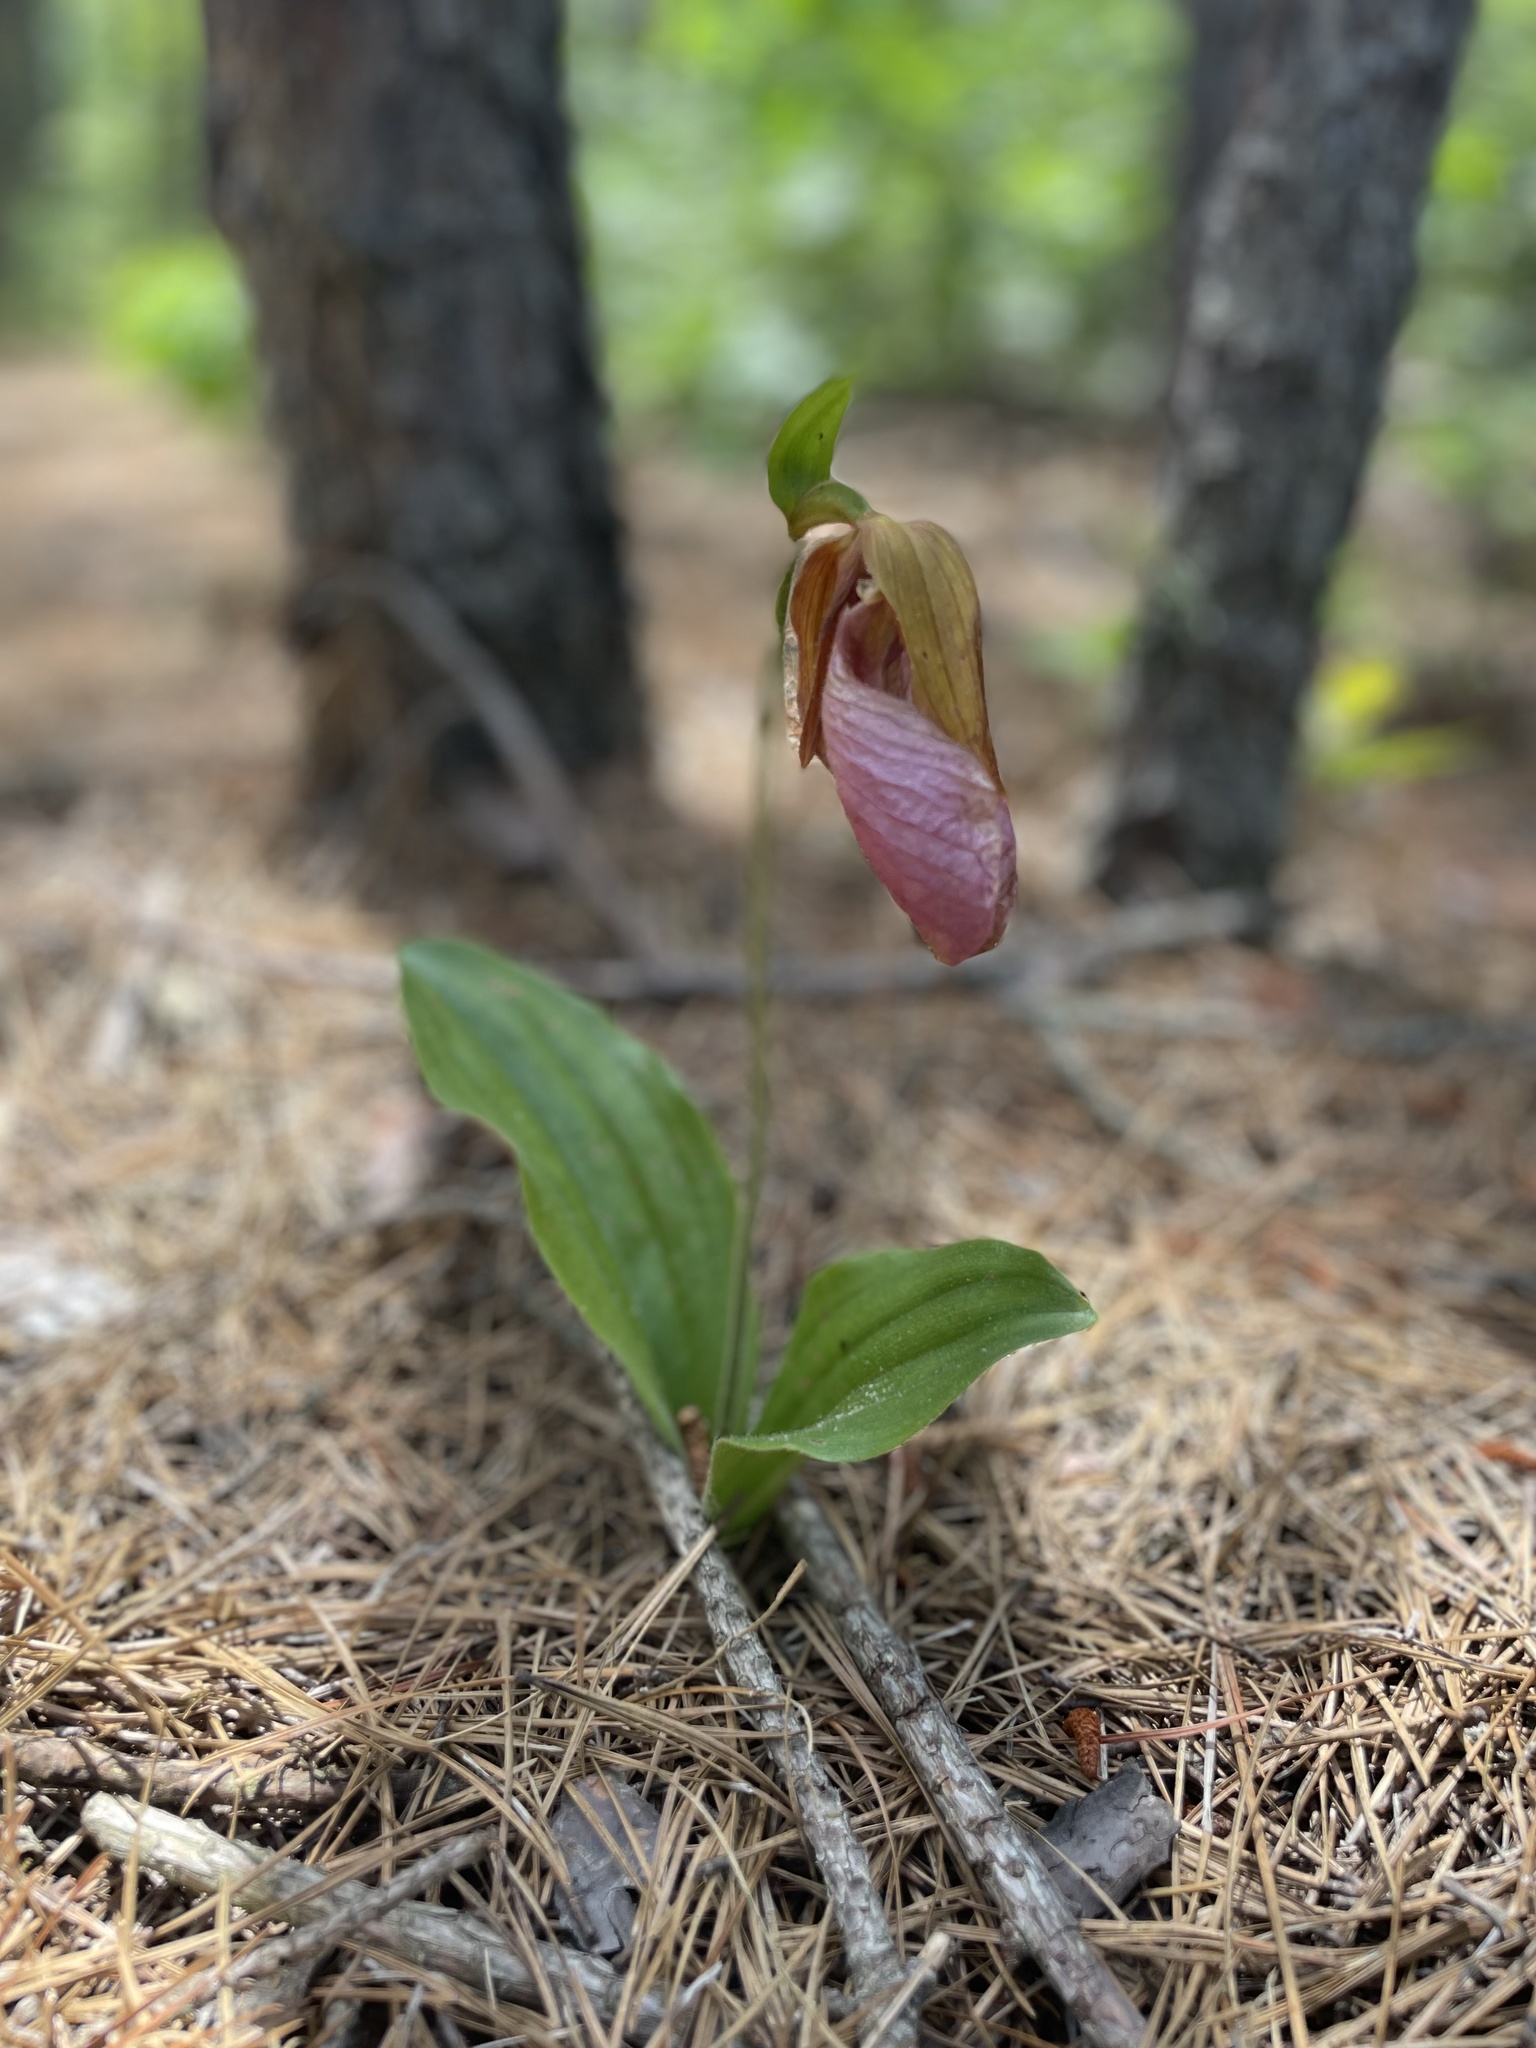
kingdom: Plantae
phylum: Tracheophyta
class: Liliopsida
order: Asparagales
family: Orchidaceae
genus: Cypripedium
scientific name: Cypripedium acaule
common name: Pink lady's-slipper
